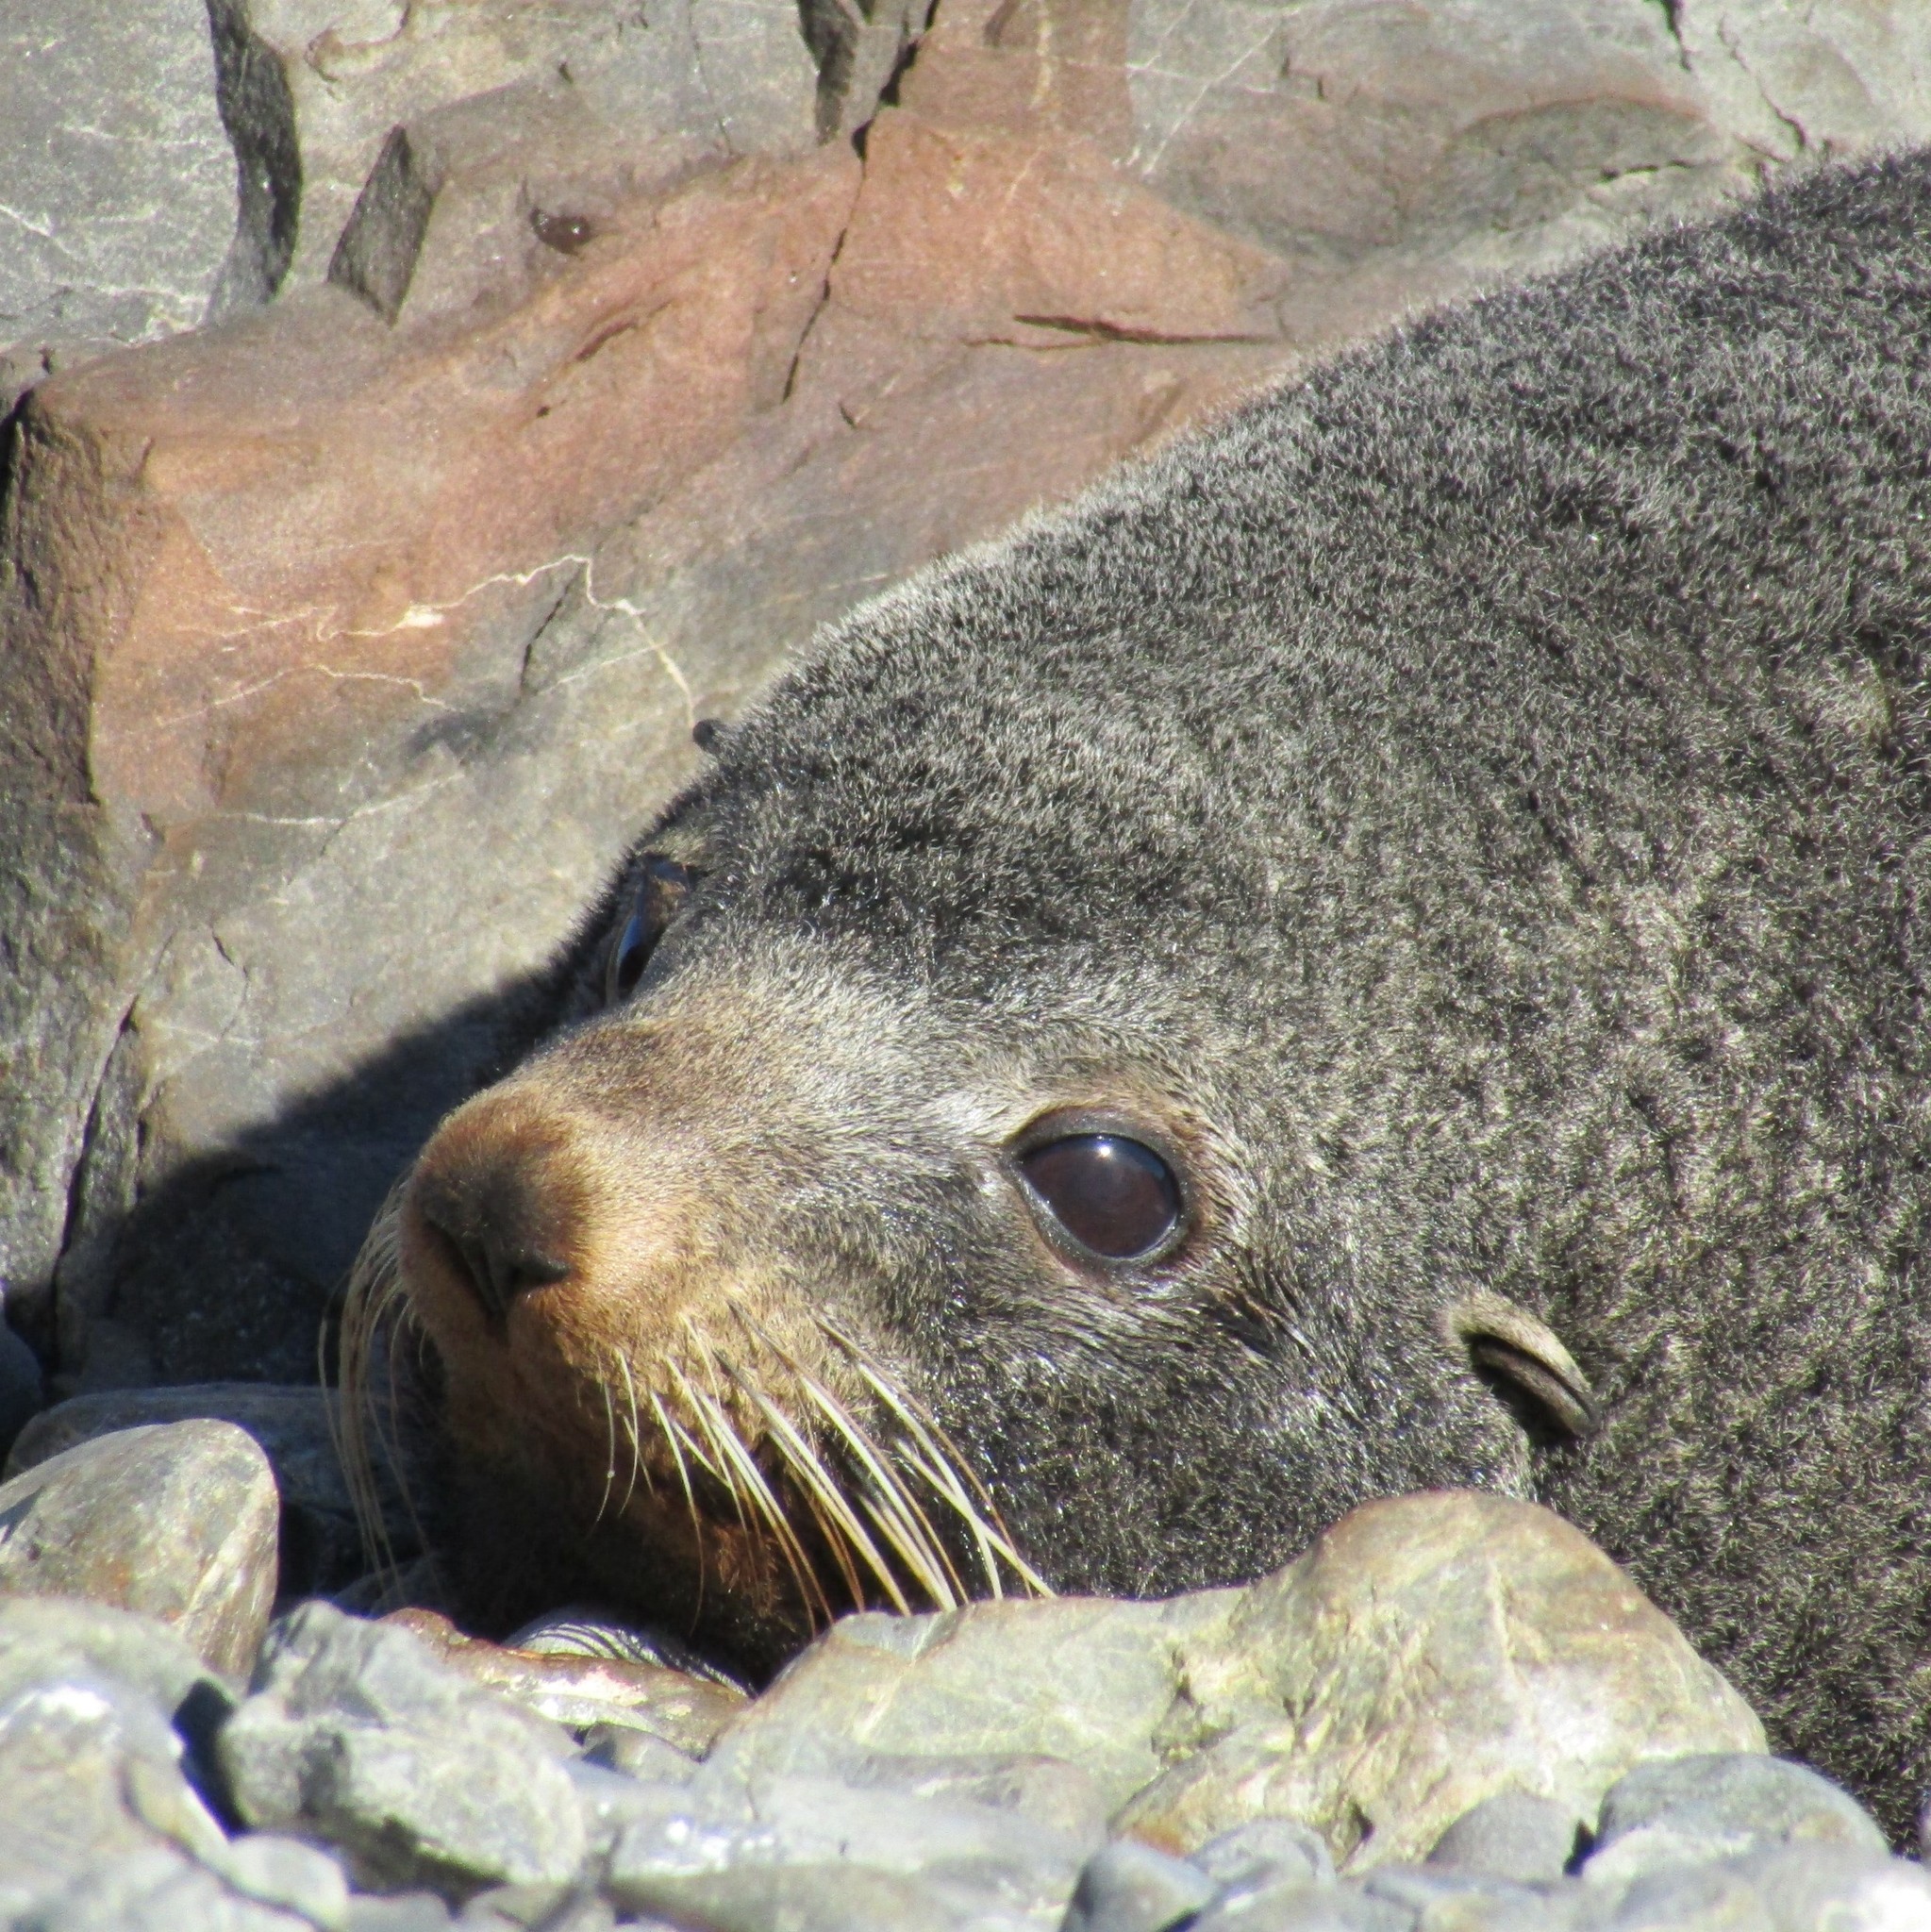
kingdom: Animalia
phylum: Chordata
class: Mammalia
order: Carnivora
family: Otariidae
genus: Arctocephalus
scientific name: Arctocephalus forsteri
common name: New zealand fur seal
